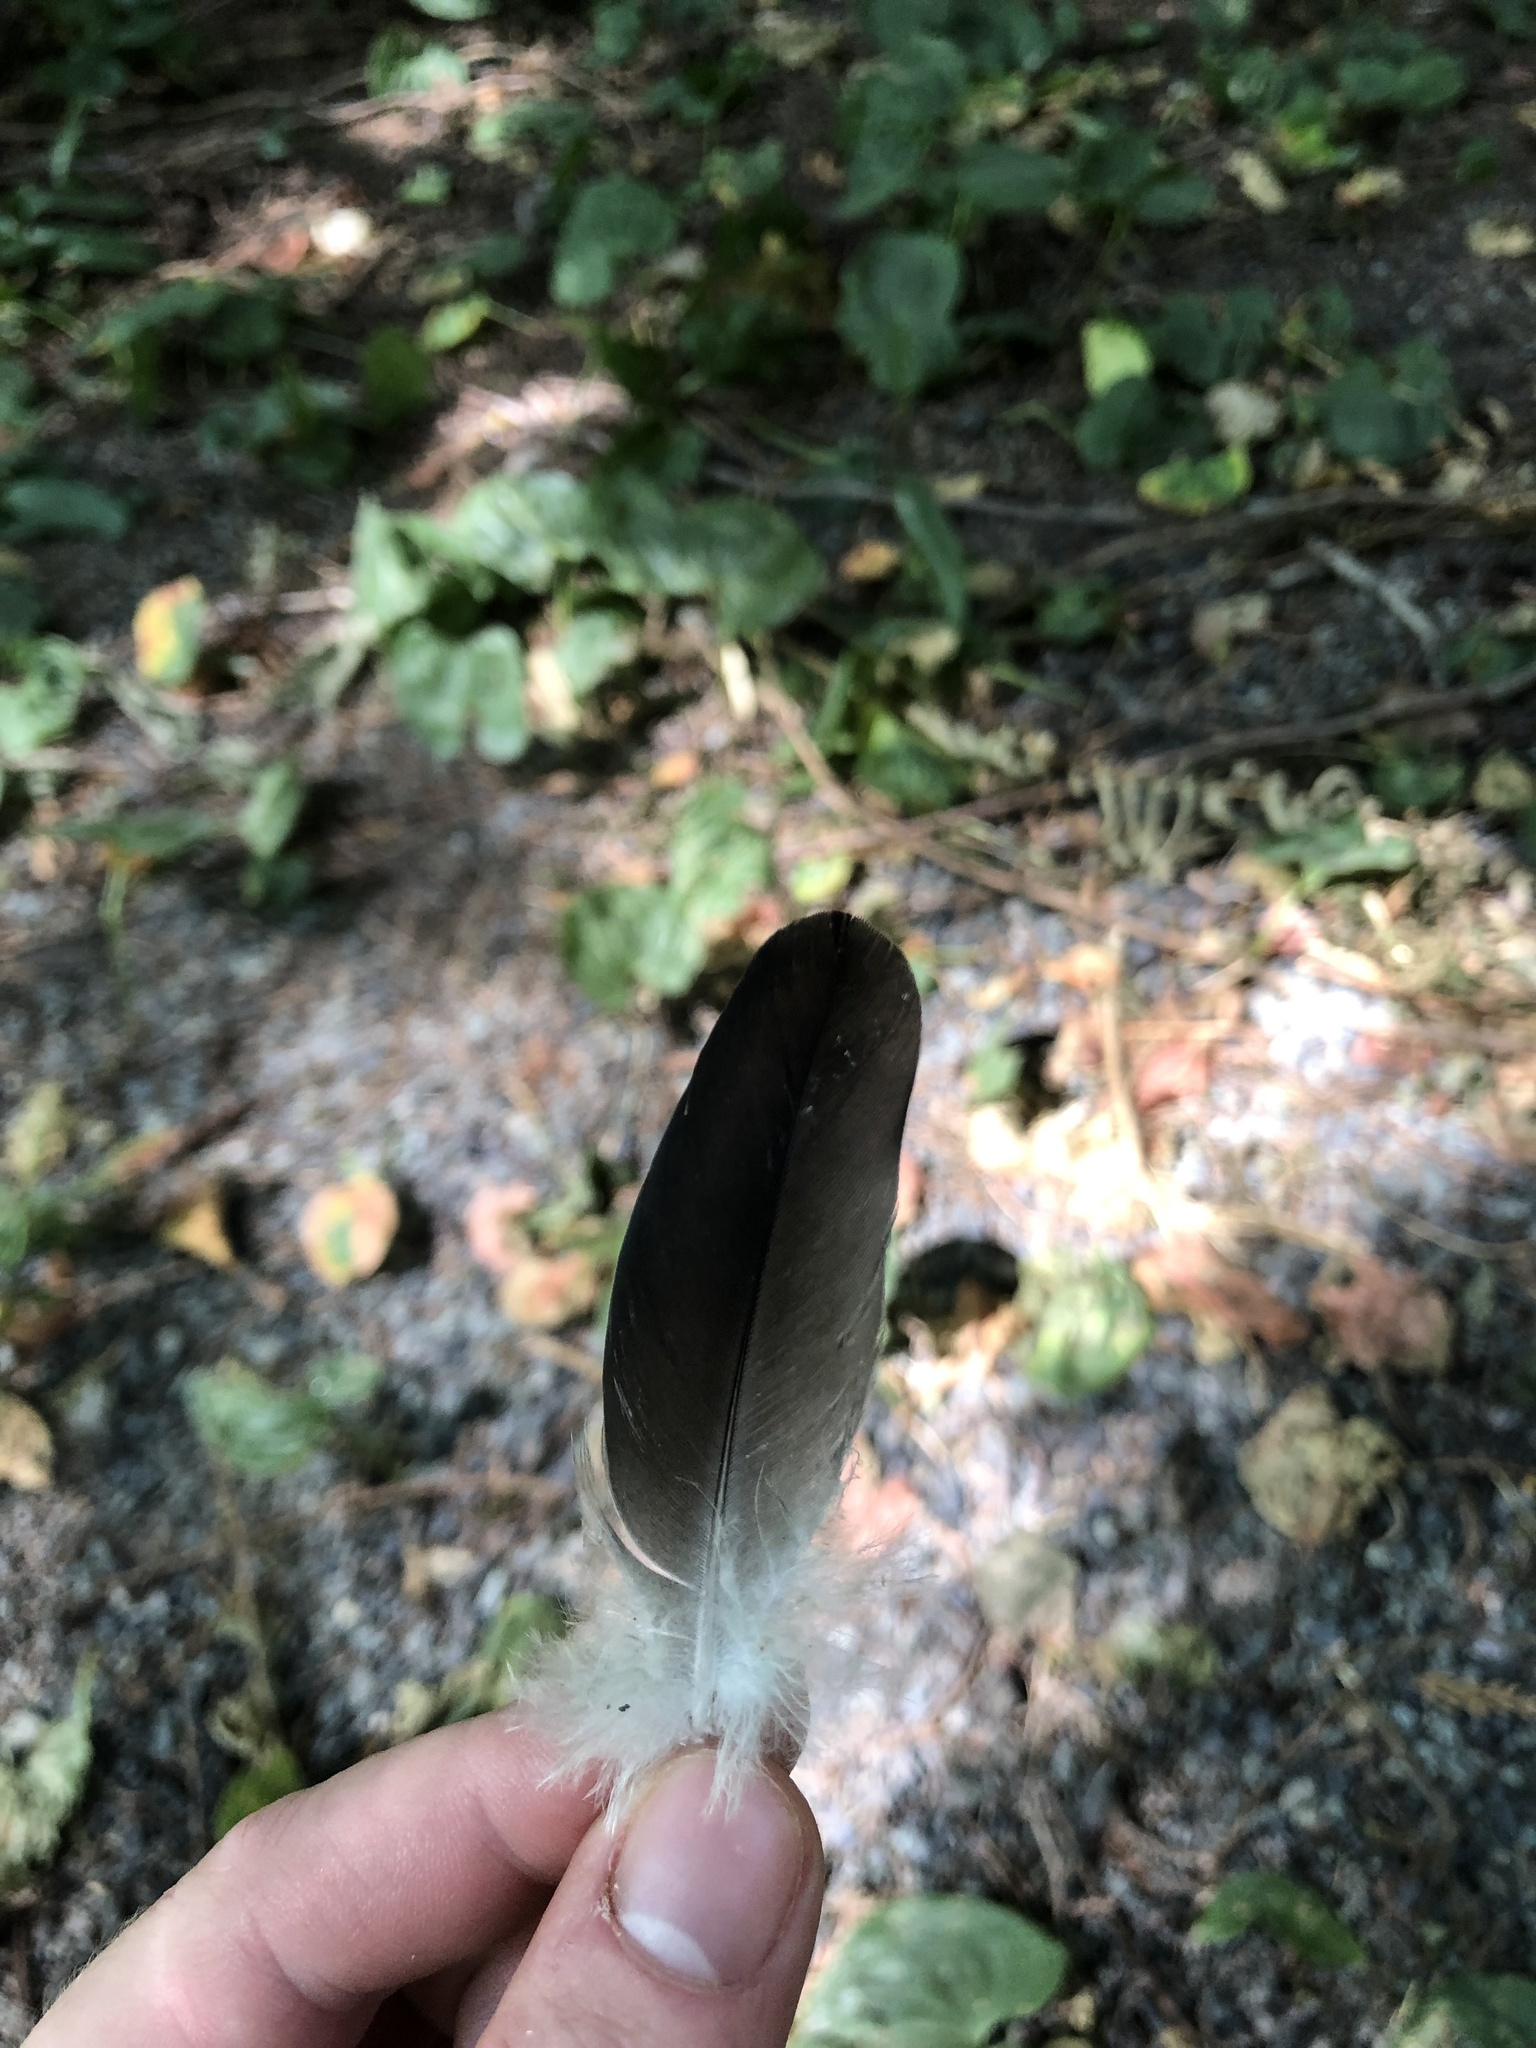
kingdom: Animalia
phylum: Chordata
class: Aves
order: Columbiformes
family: Columbidae
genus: Columba
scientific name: Columba livia
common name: Rock pigeon
